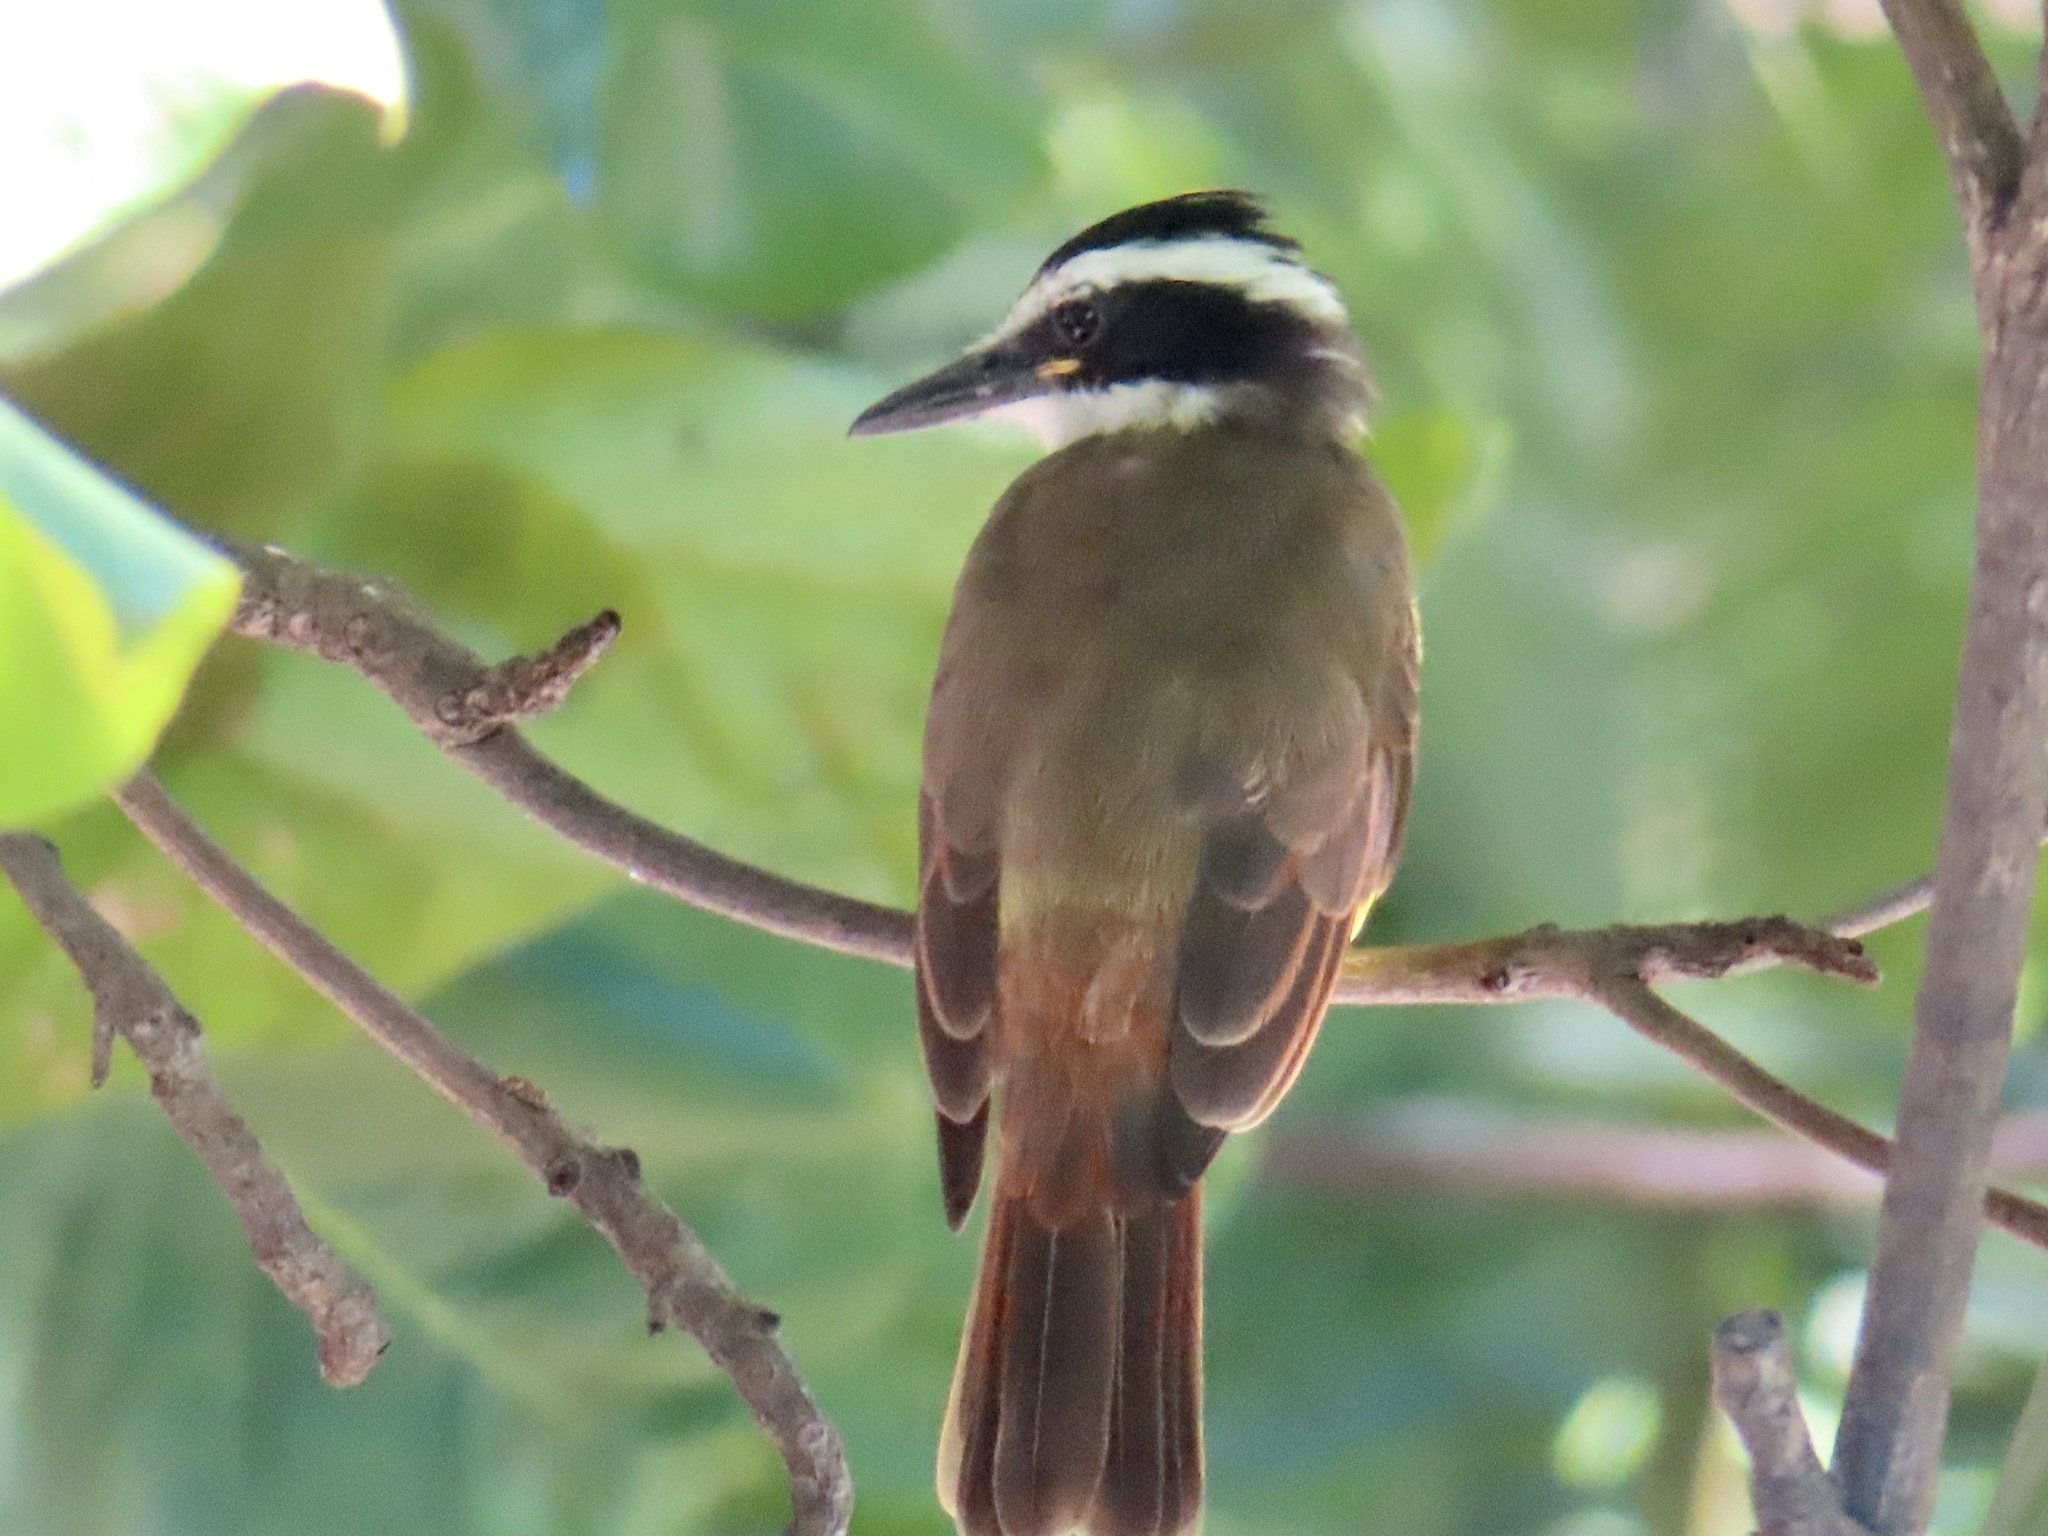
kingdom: Animalia
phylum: Chordata
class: Aves
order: Passeriformes
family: Tyrannidae
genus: Pitangus
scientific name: Pitangus sulphuratus
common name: Great kiskadee
